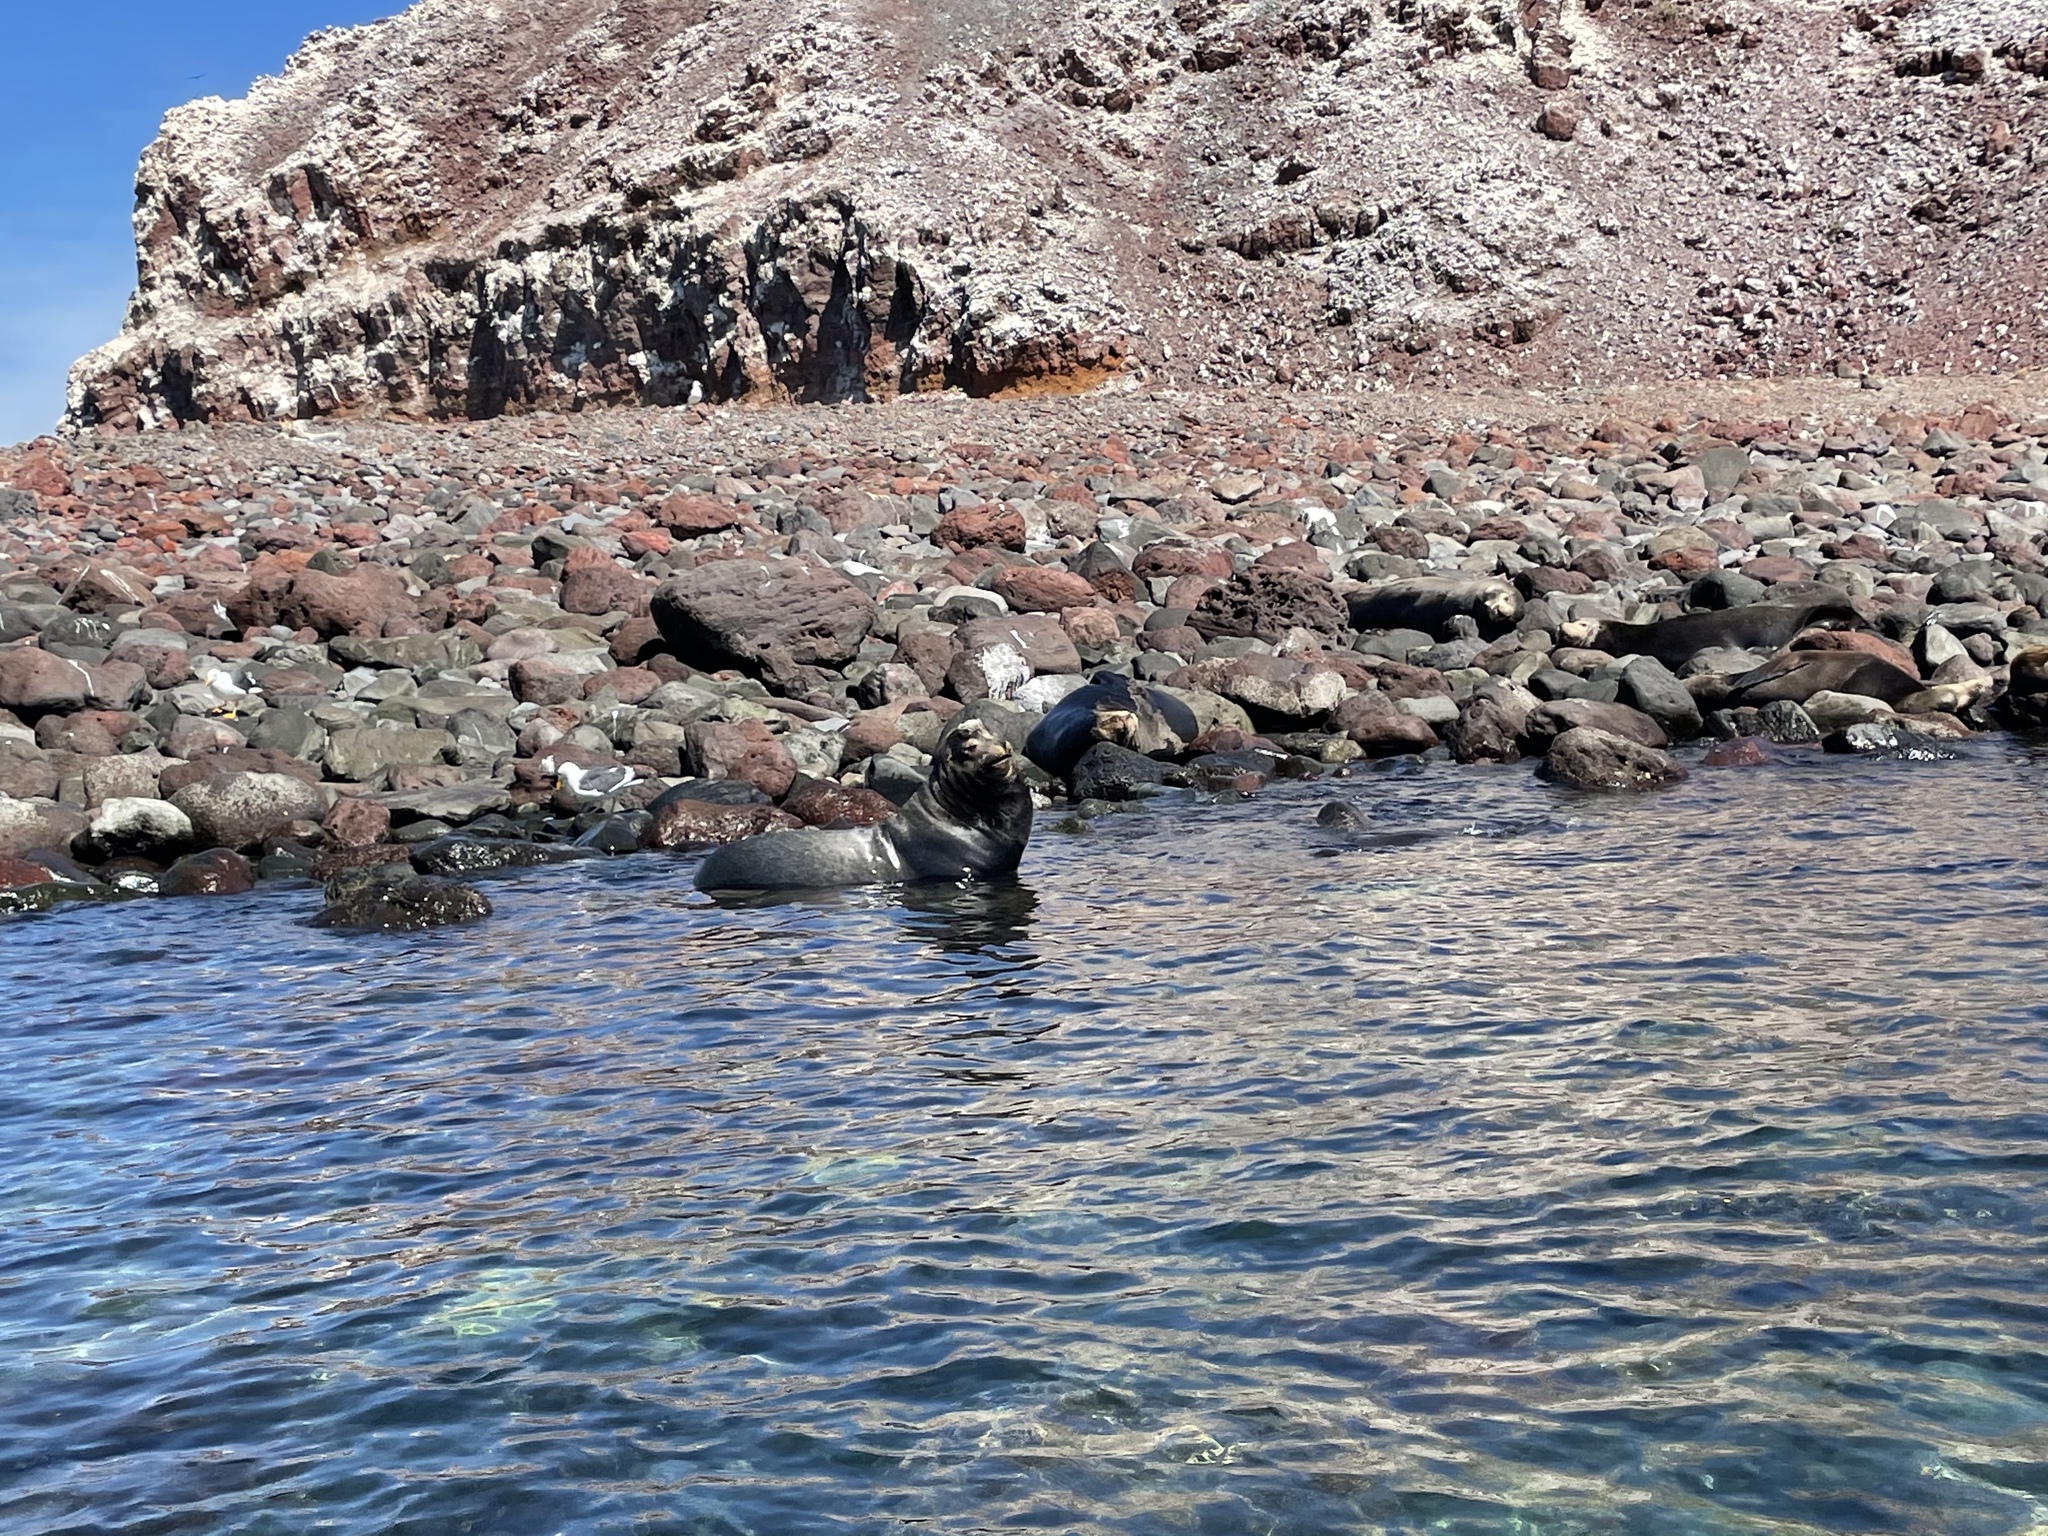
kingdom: Animalia
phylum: Chordata
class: Mammalia
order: Carnivora
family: Otariidae
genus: Zalophus
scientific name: Zalophus californianus
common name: California sea lion
